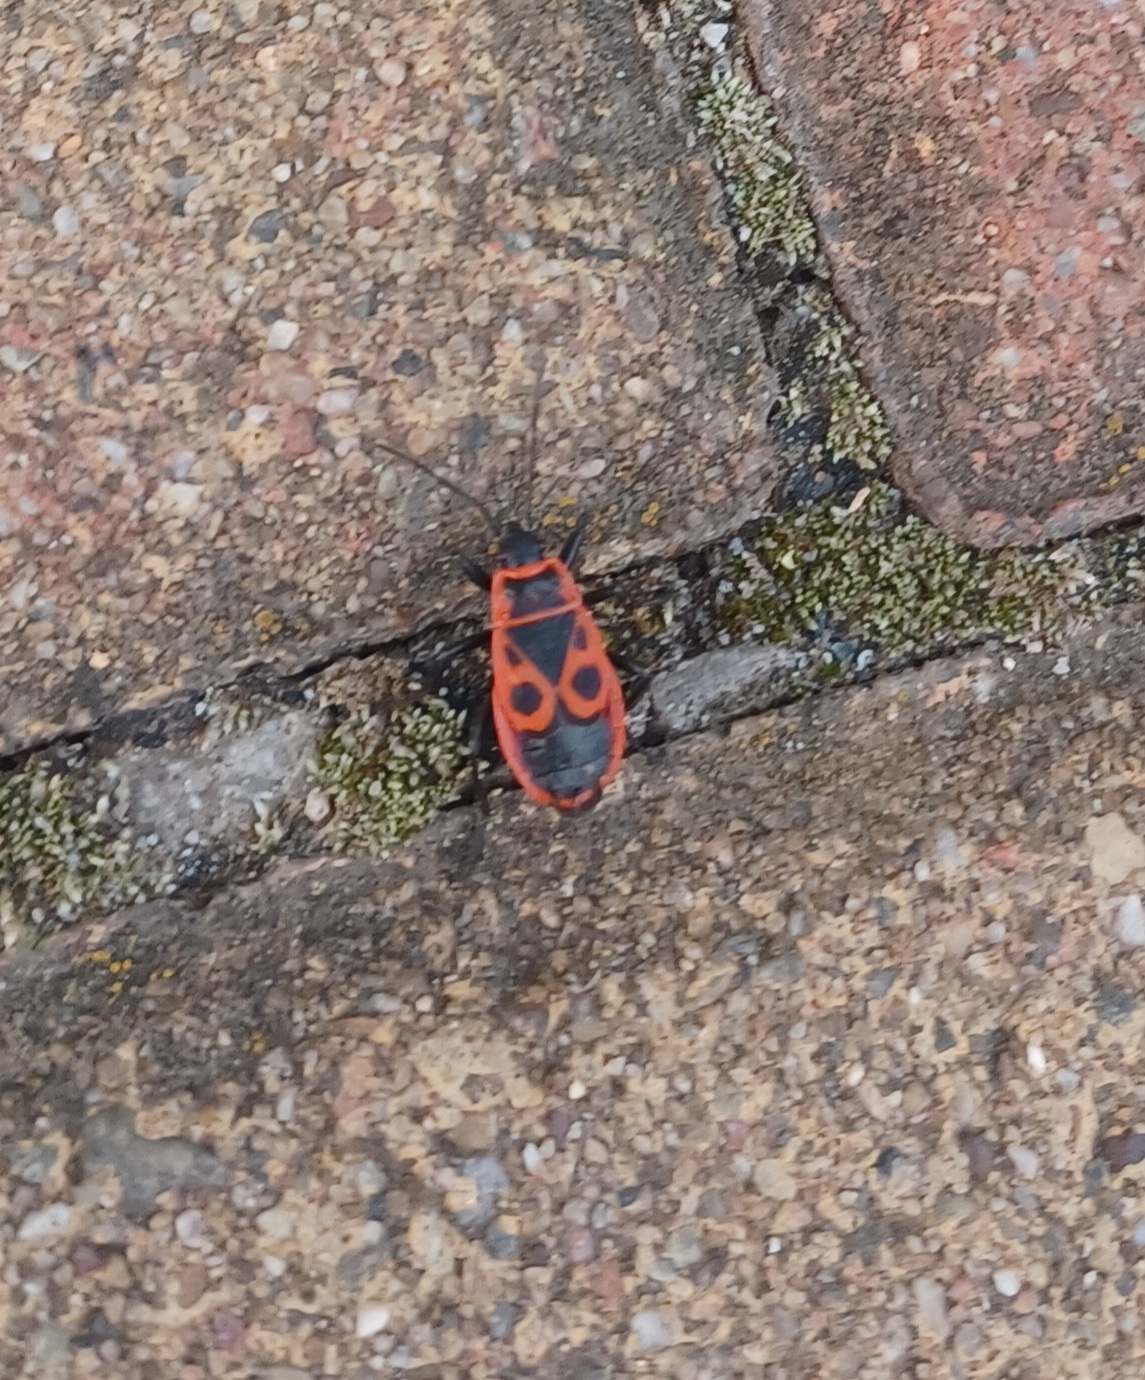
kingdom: Animalia
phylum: Arthropoda
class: Insecta
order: Hemiptera
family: Pyrrhocoridae
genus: Pyrrhocoris
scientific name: Pyrrhocoris apterus
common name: Firebug
